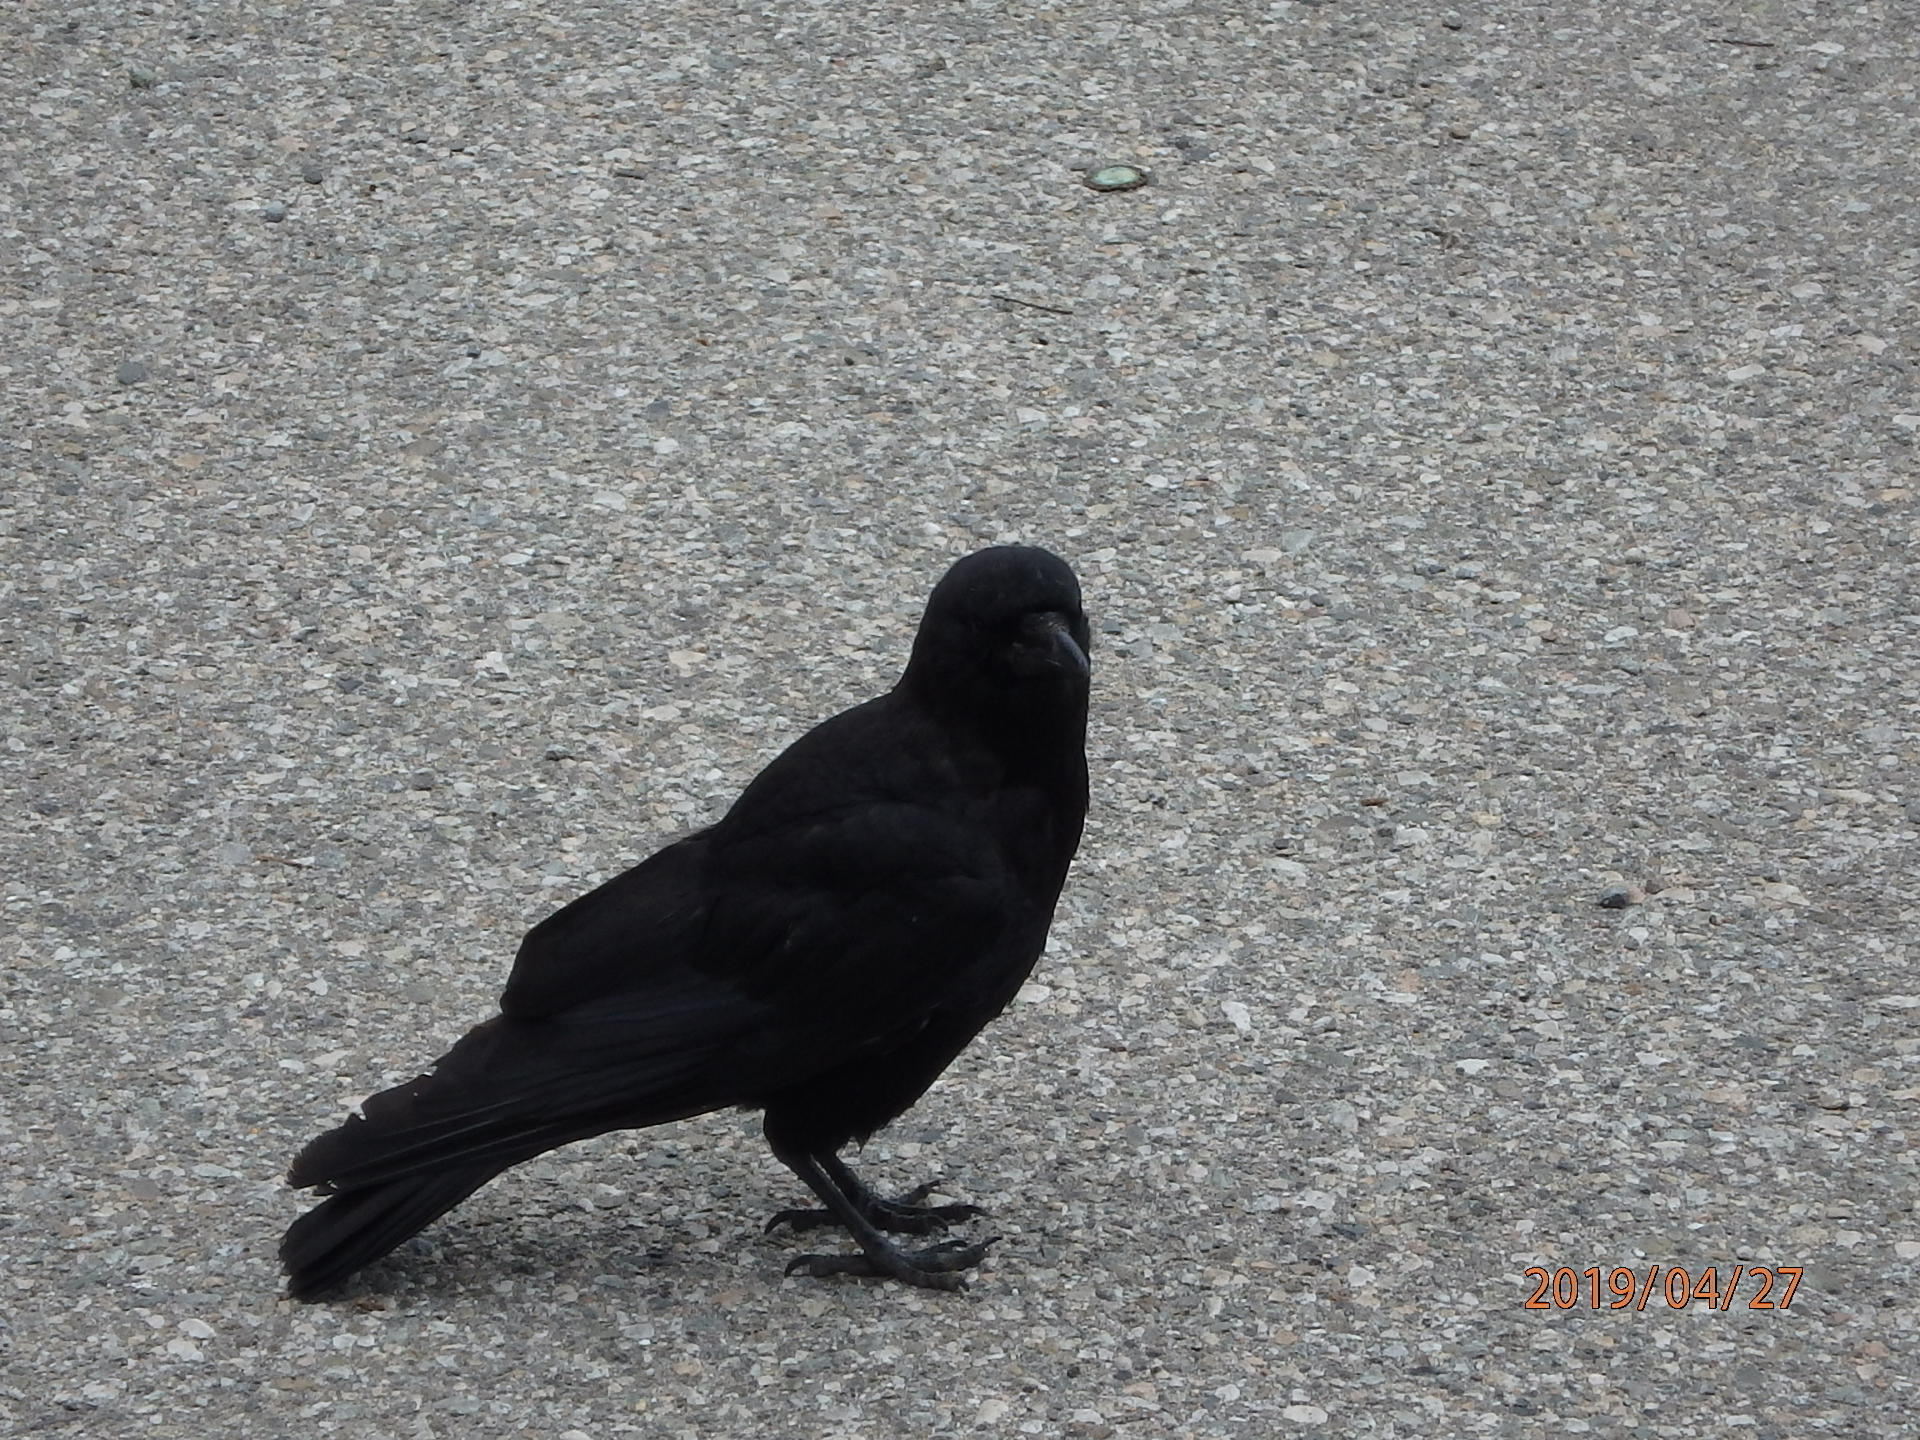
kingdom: Animalia
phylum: Chordata
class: Aves
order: Passeriformes
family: Corvidae
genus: Corvus
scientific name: Corvus brachyrhynchos
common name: American crow
